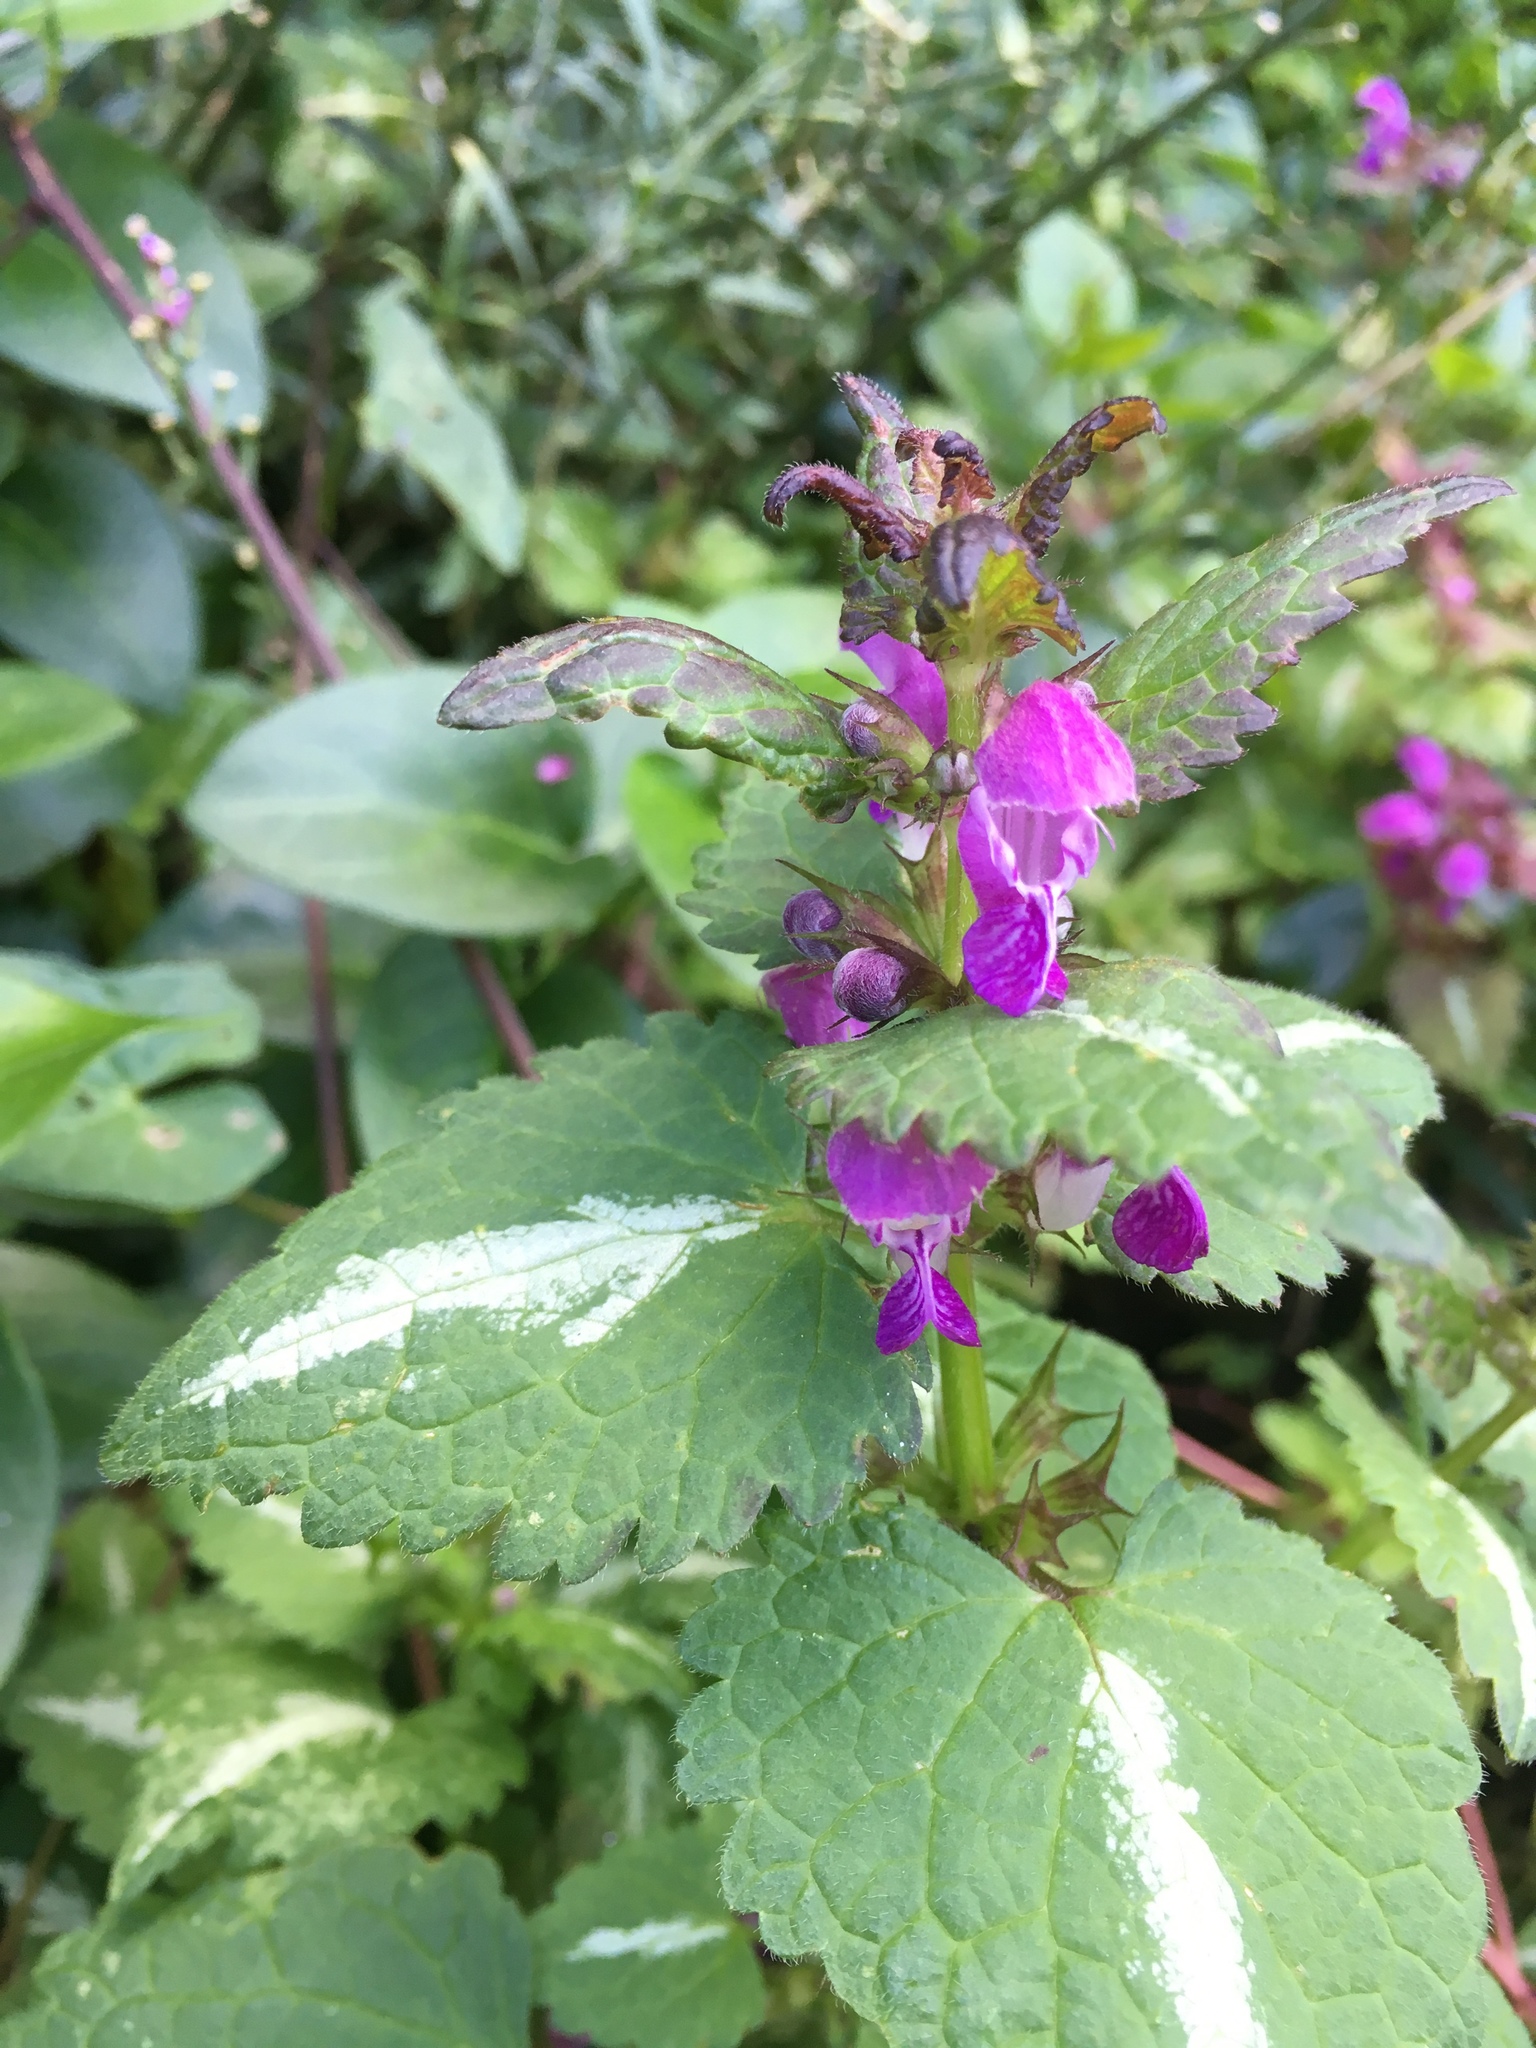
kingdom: Plantae
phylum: Tracheophyta
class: Magnoliopsida
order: Lamiales
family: Lamiaceae
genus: Lamium
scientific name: Lamium maculatum
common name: Spotted dead-nettle
